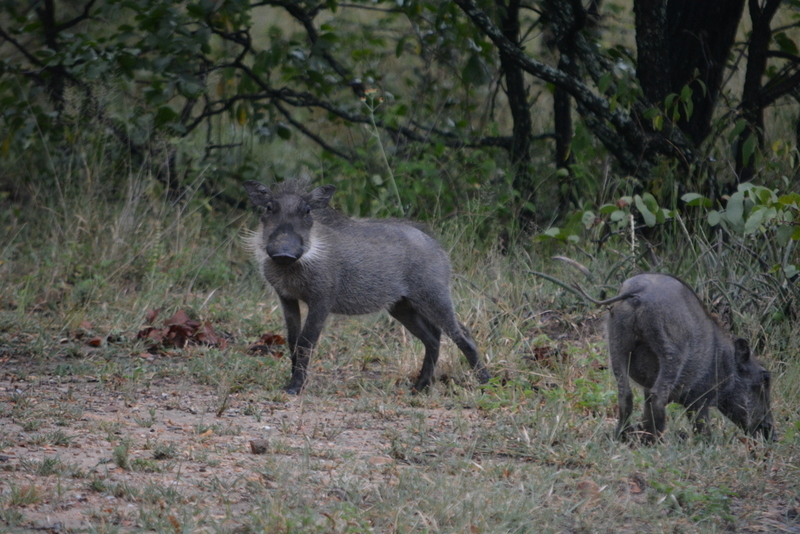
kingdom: Animalia
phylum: Chordata
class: Mammalia
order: Artiodactyla
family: Suidae
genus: Phacochoerus
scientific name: Phacochoerus africanus
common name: Common warthog
